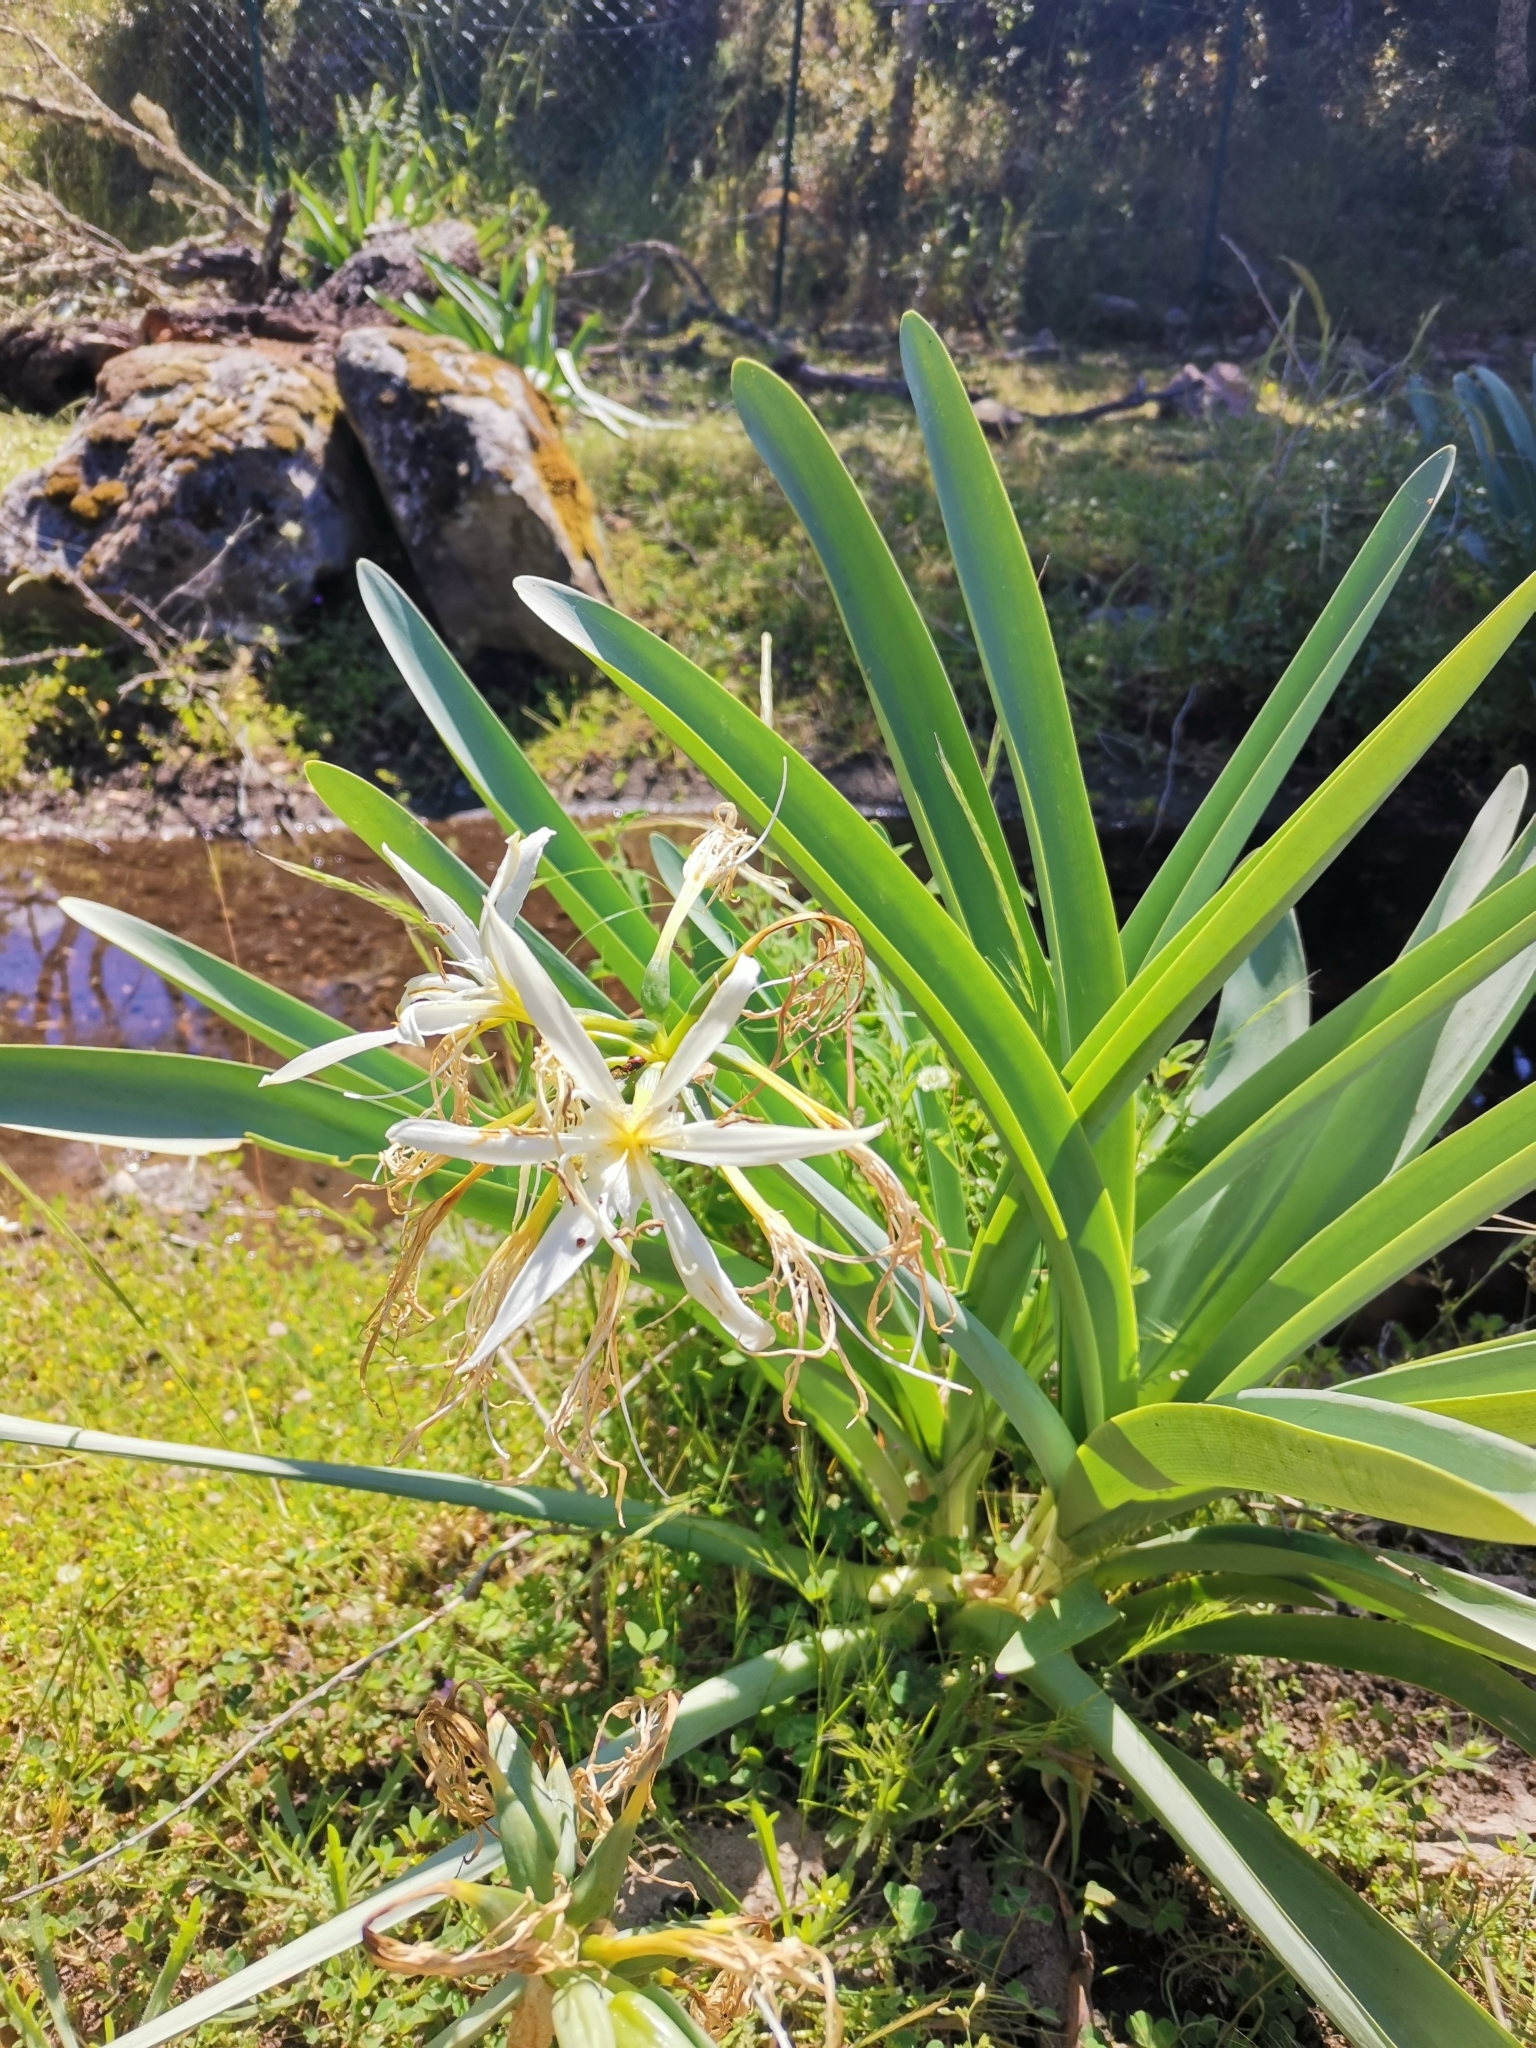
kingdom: Plantae
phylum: Tracheophyta
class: Liliopsida
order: Asparagales
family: Amaryllidaceae
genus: Pancratium
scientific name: Pancratium illyricum
